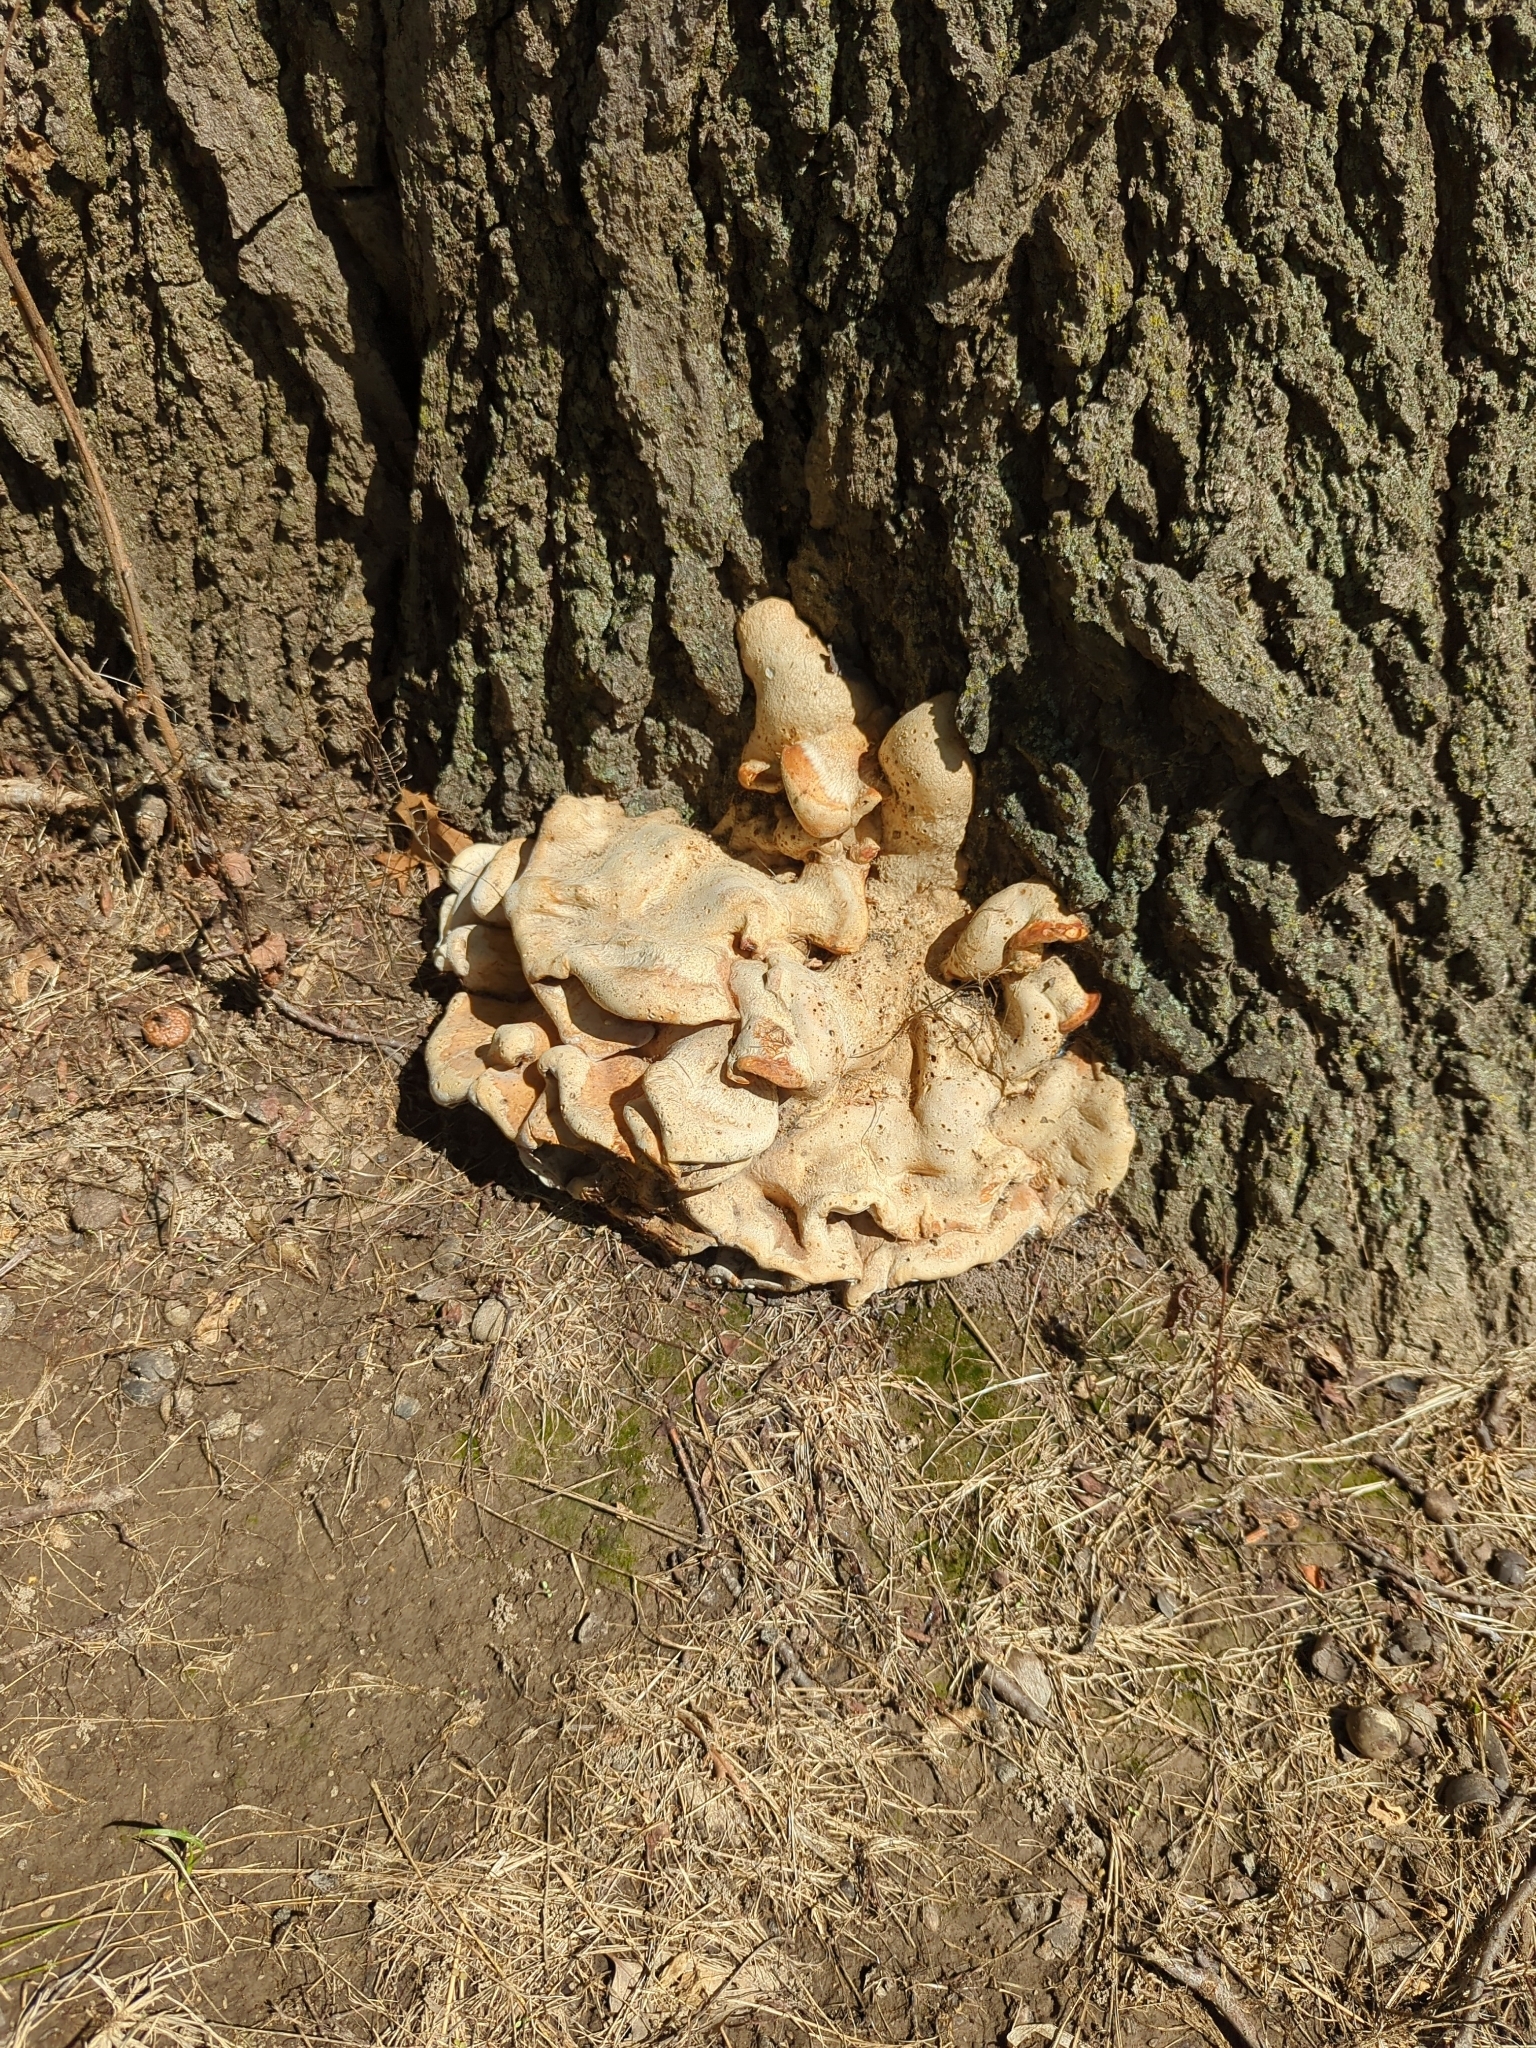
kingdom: Fungi
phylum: Basidiomycota
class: Agaricomycetes
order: Russulales
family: Bondarzewiaceae
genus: Bondarzewia
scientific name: Bondarzewia berkeleyi
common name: Berkeley's polypore
